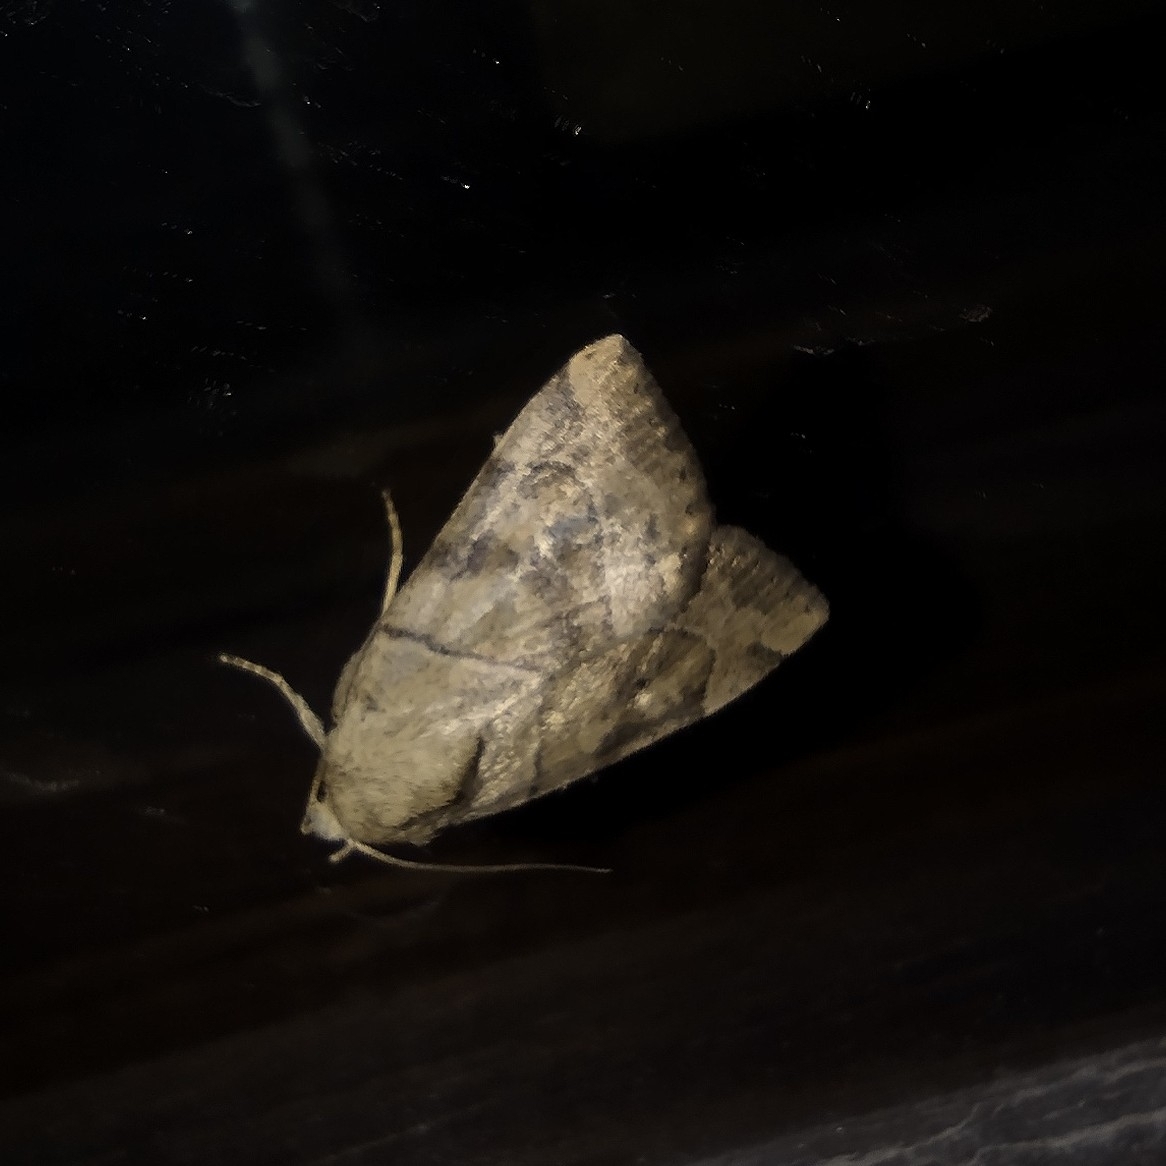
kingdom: Animalia
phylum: Arthropoda
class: Insecta
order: Lepidoptera
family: Noctuidae
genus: Cosmia
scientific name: Cosmia trapezina
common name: Dun-bar
